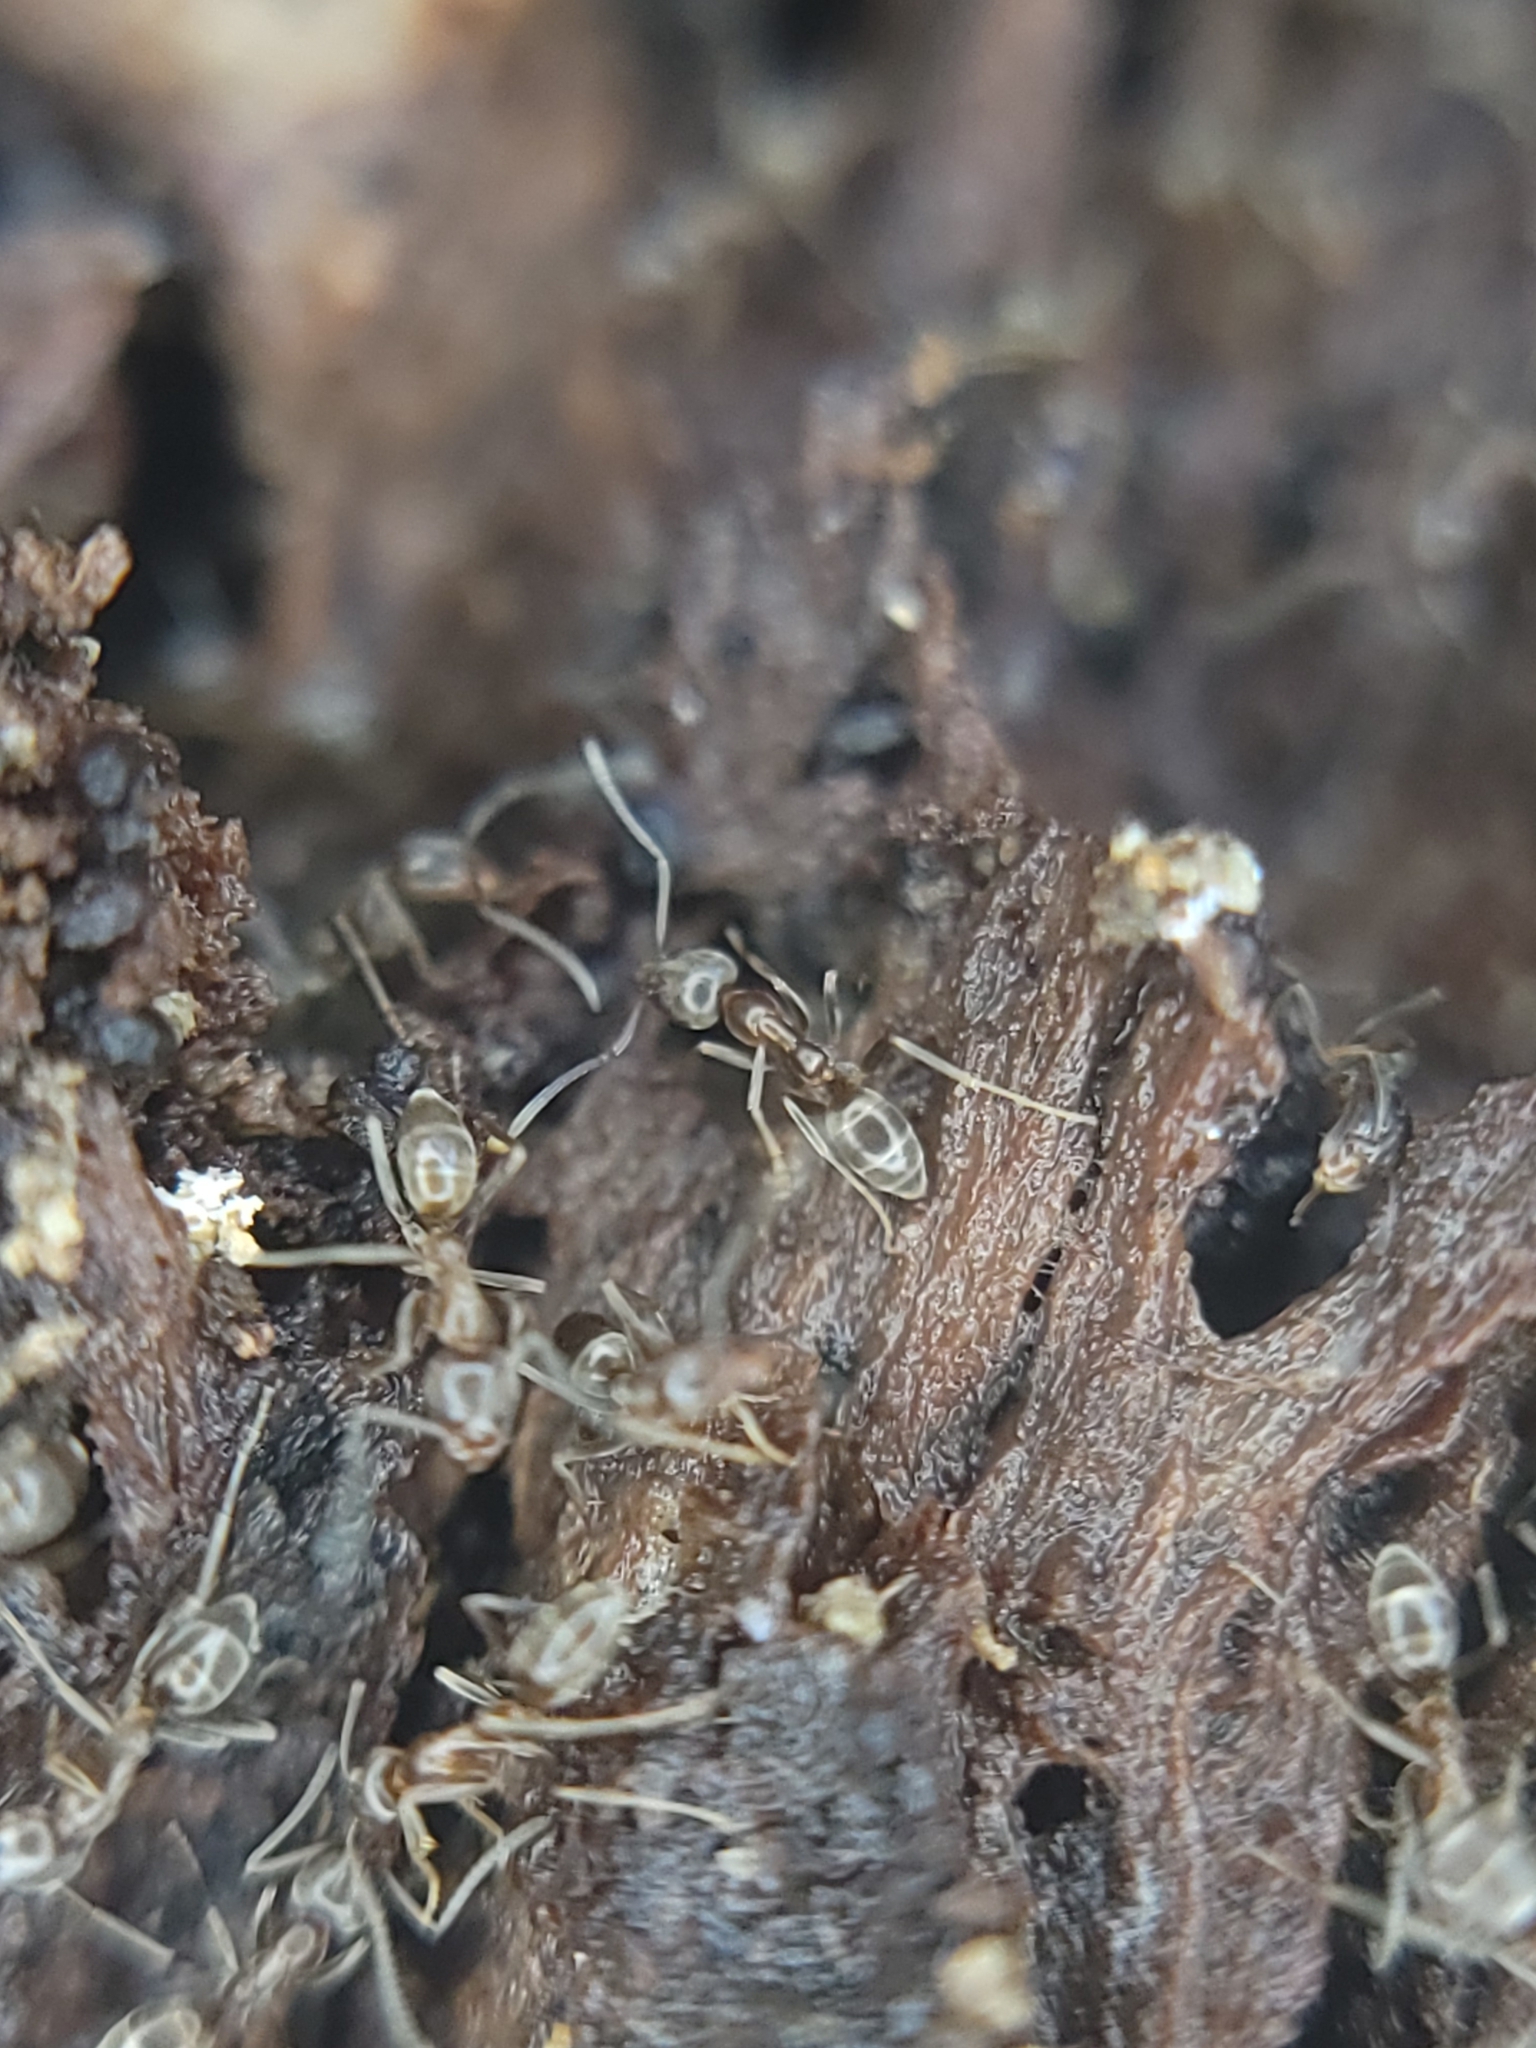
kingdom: Animalia
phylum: Arthropoda
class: Insecta
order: Hymenoptera
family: Formicidae
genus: Linepithema
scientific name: Linepithema humile
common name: Argentine ant
